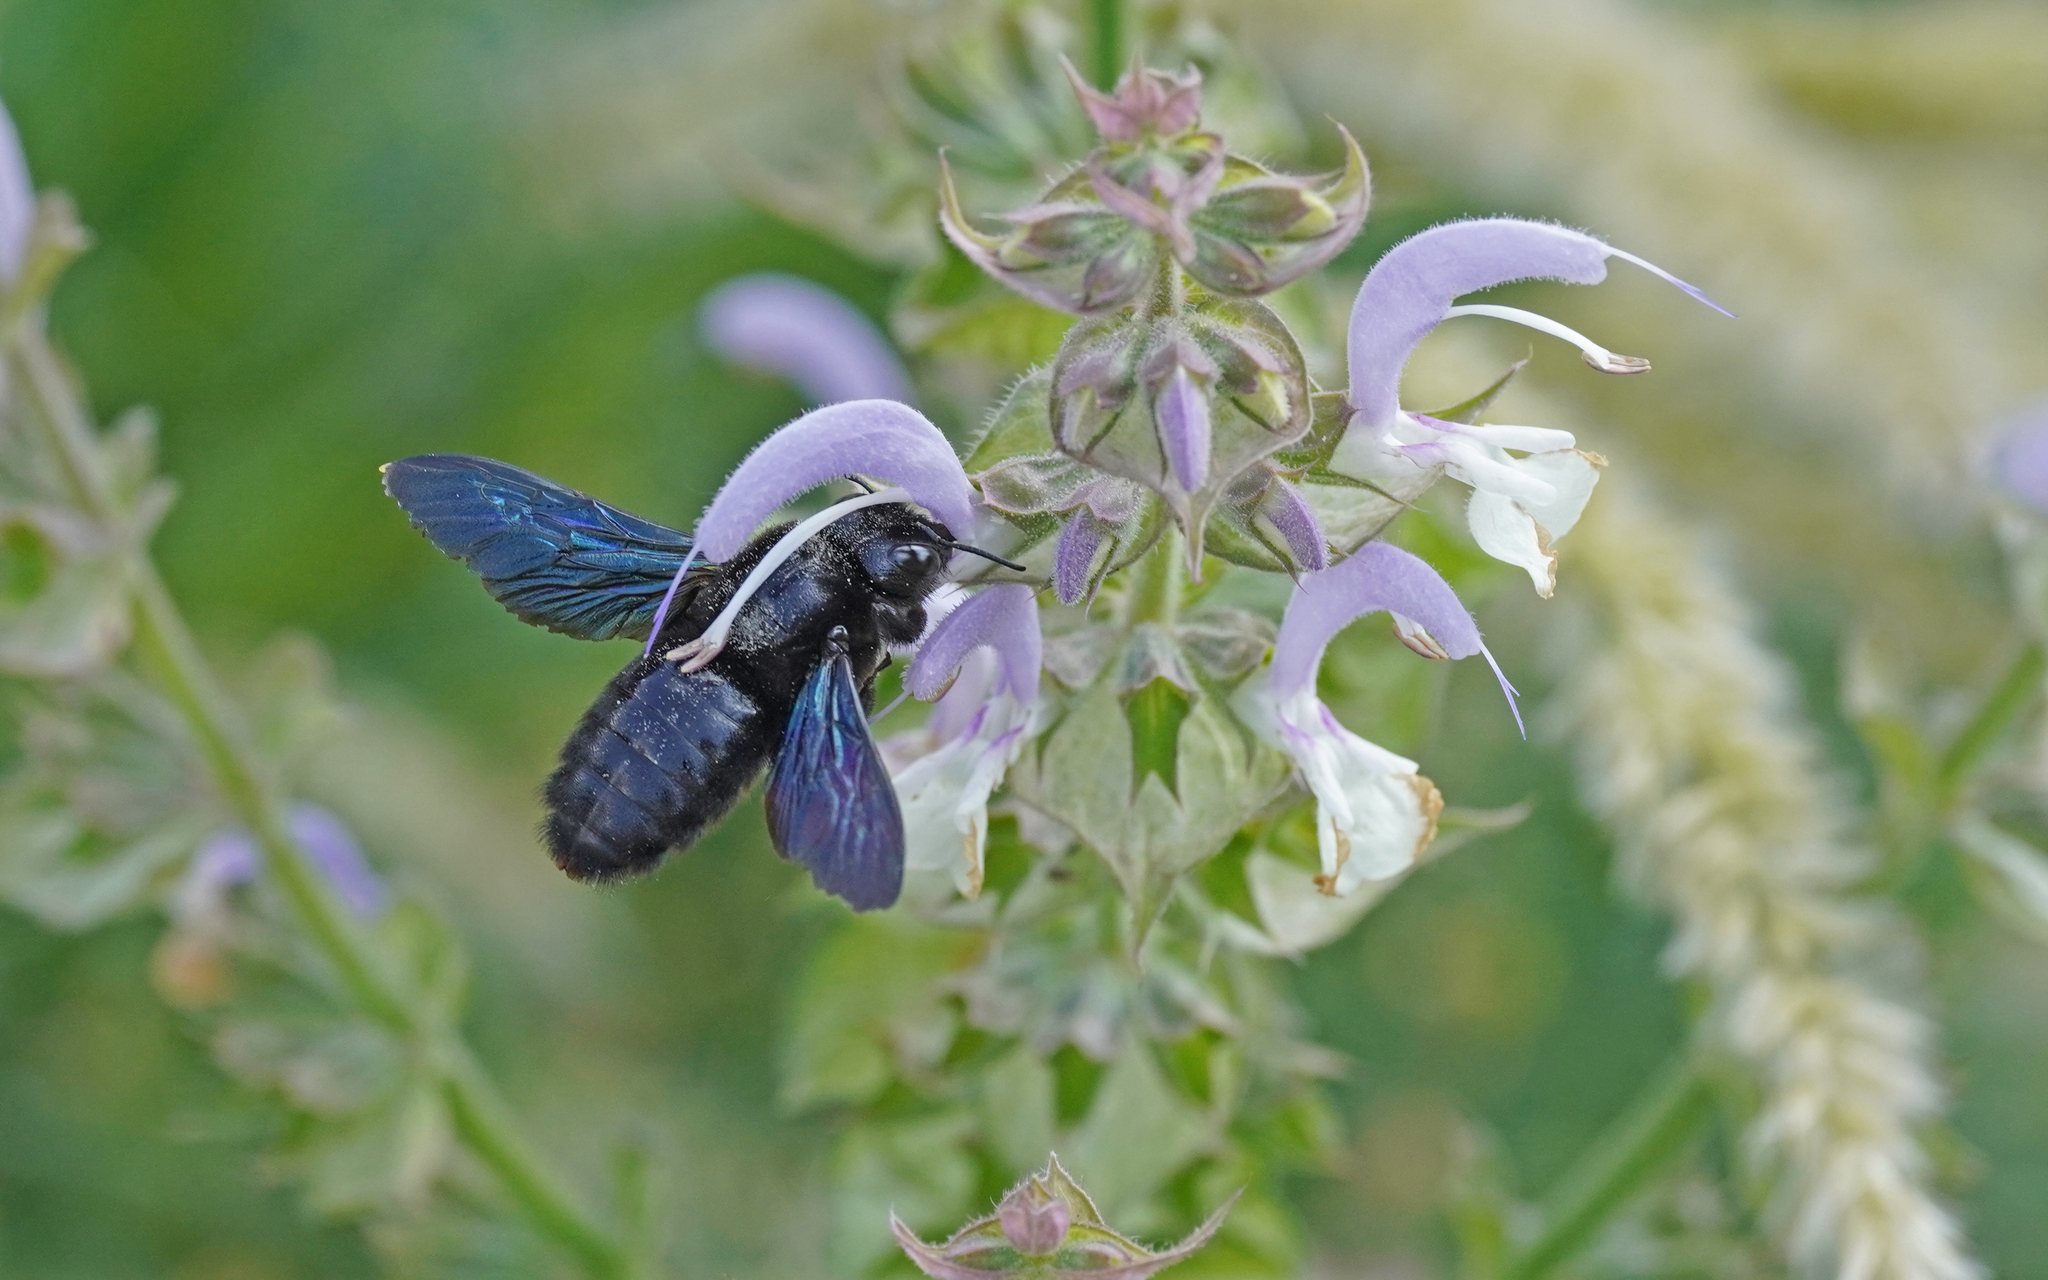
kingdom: Animalia
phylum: Arthropoda
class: Insecta
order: Hymenoptera
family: Apidae
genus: Xylocopa
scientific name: Xylocopa violacea
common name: Violet carpenter bee
